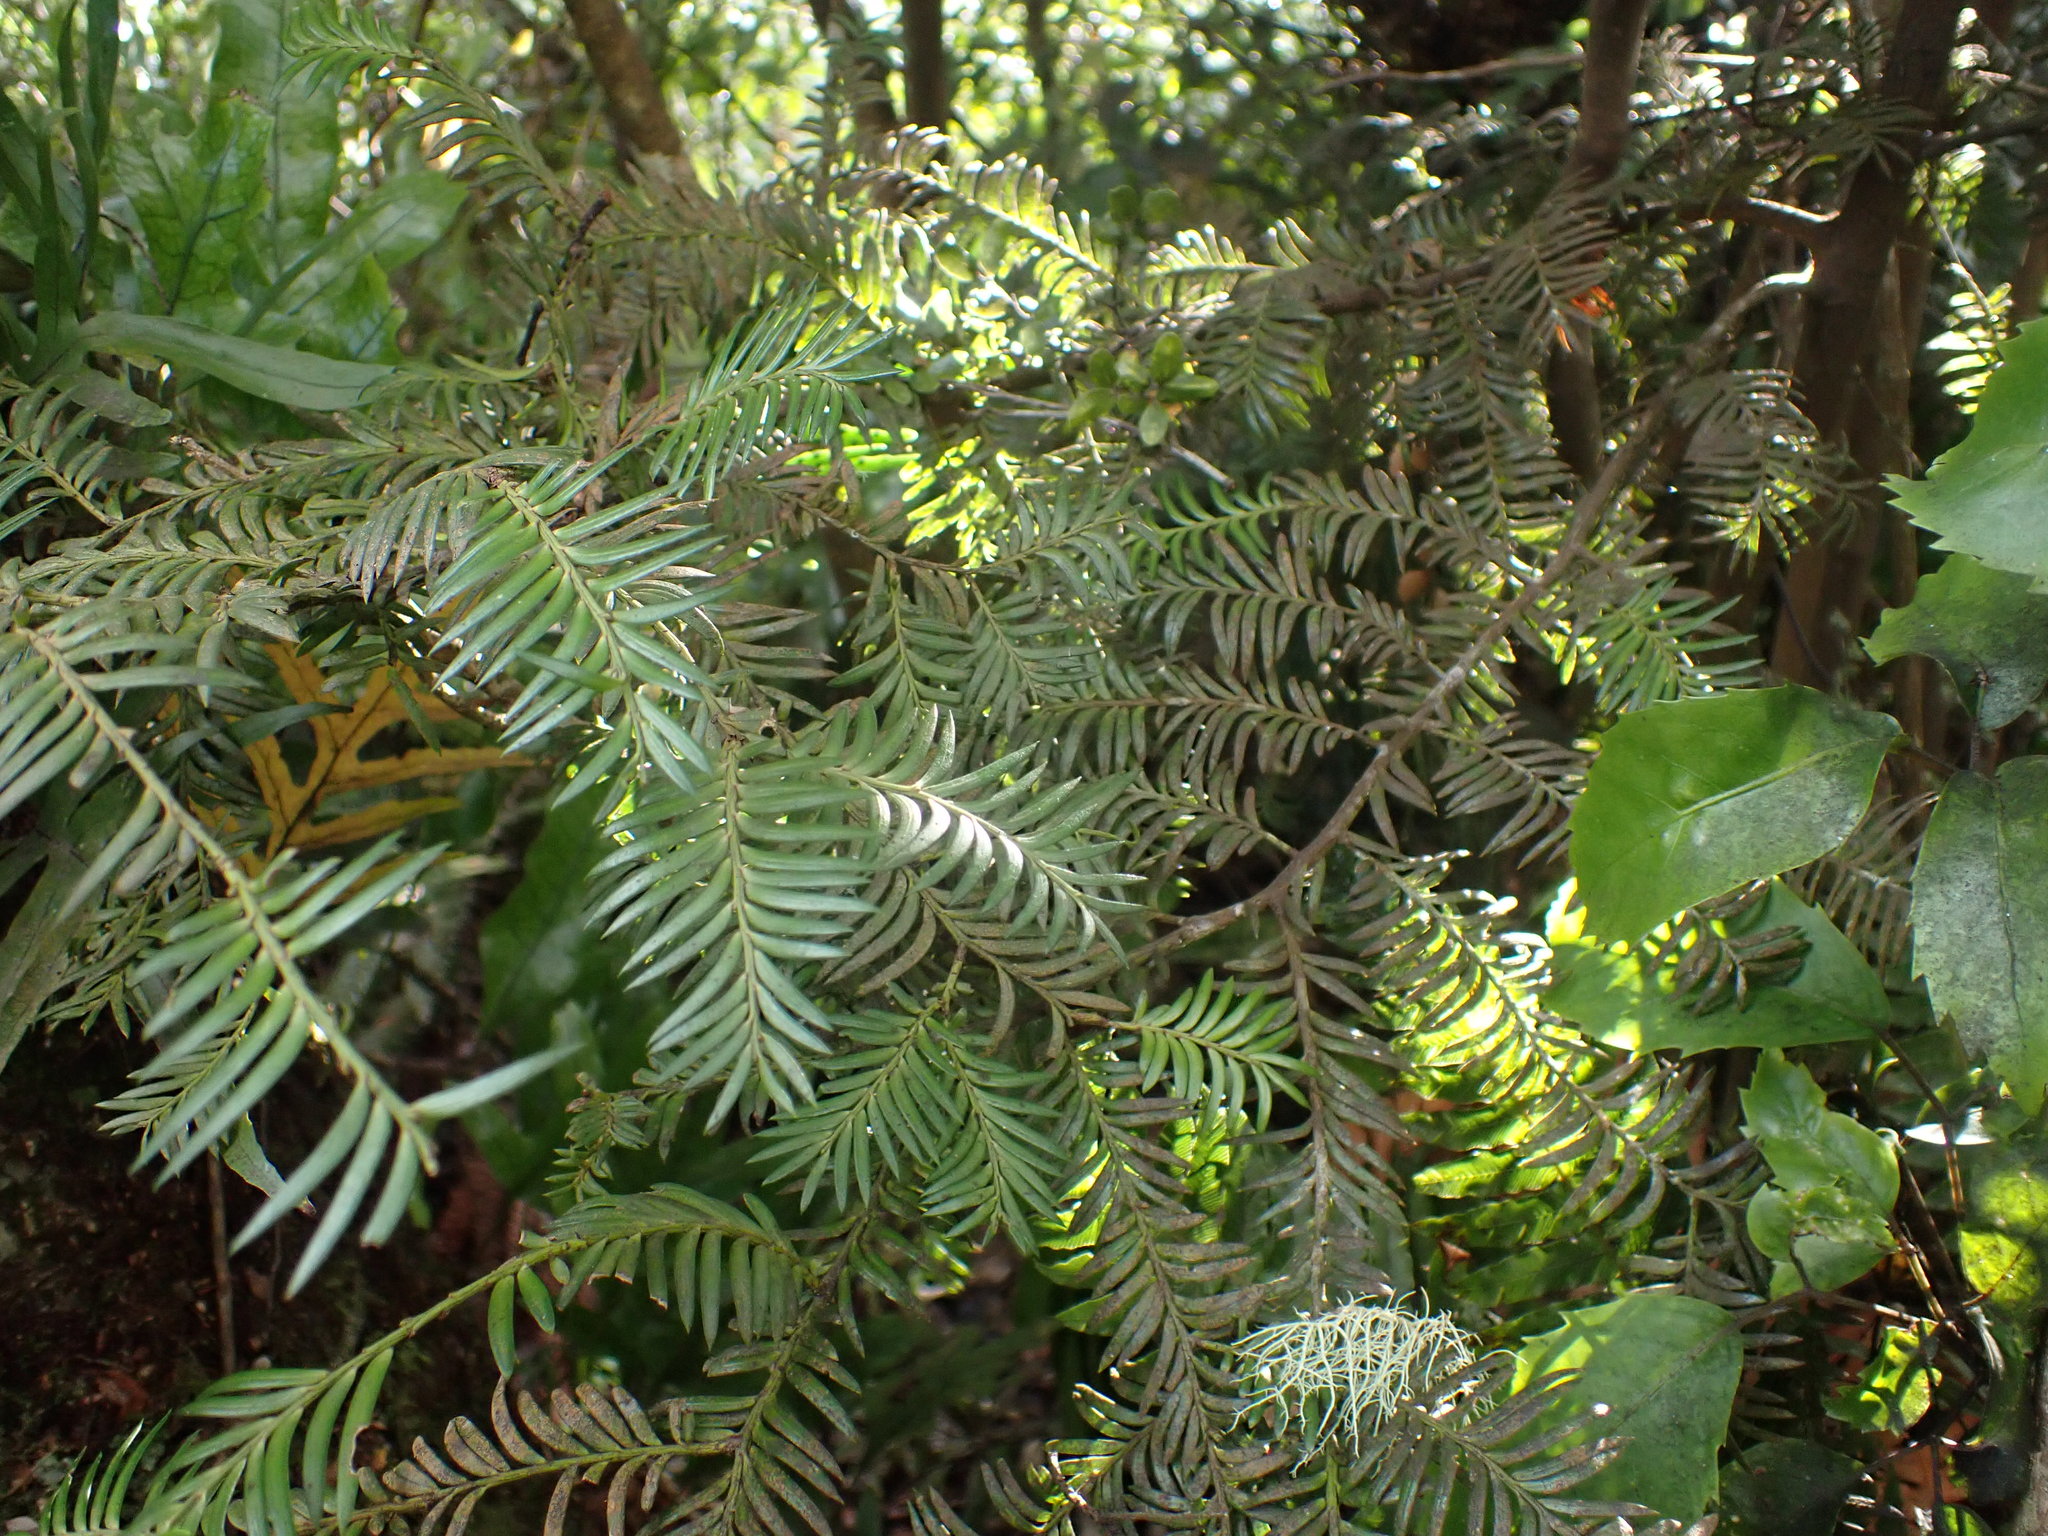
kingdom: Plantae
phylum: Tracheophyta
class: Pinopsida
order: Pinales
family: Podocarpaceae
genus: Prumnopitys
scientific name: Prumnopitys ferruginea
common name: Brown pine
